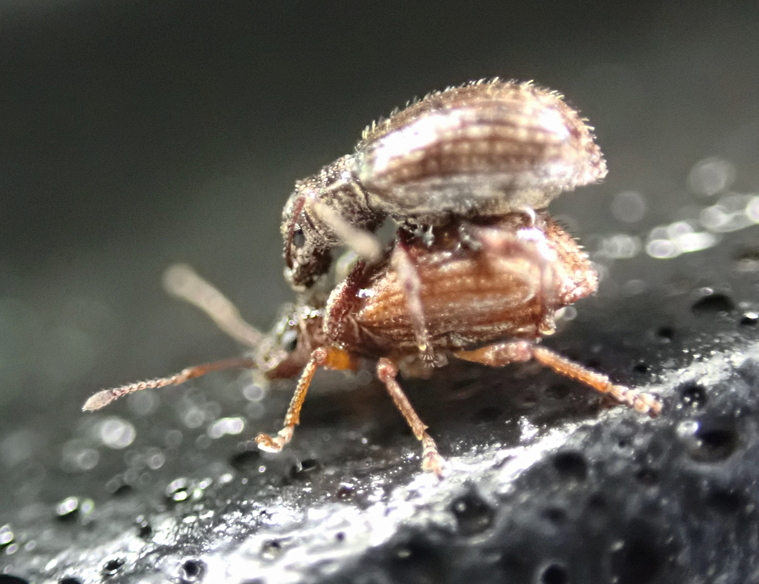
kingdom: Animalia
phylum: Arthropoda
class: Insecta
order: Coleoptera
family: Curculionidae
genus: Pseudoedophrys
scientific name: Pseudoedophrys hilleri
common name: Weevil
